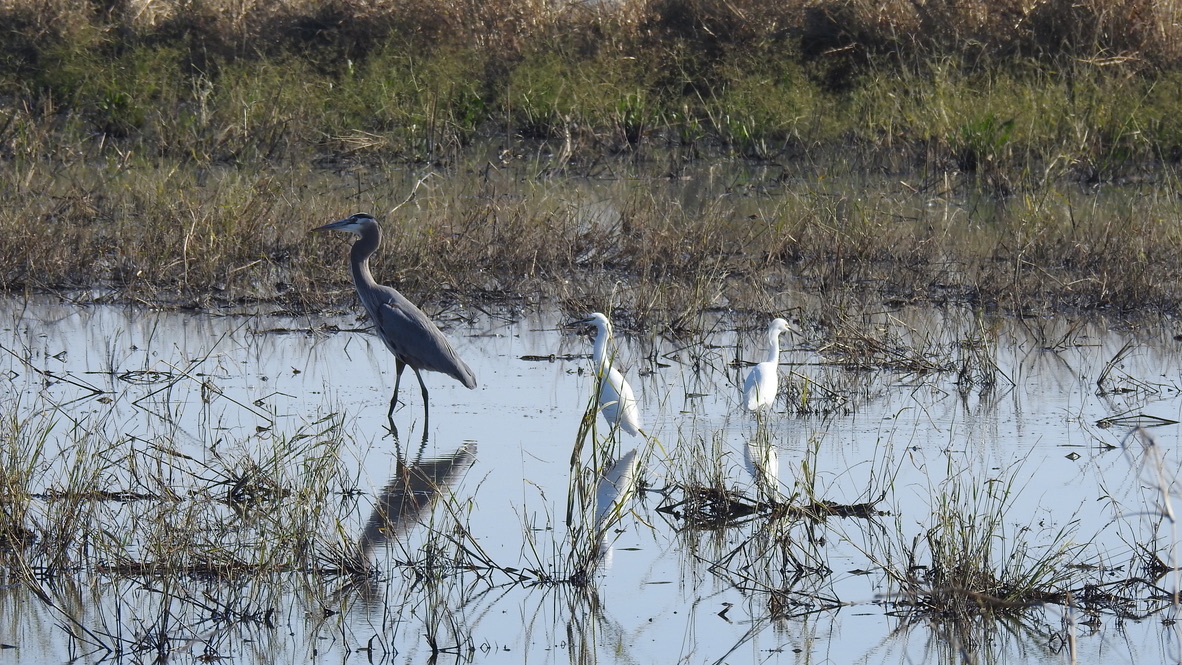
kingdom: Animalia
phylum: Chordata
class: Aves
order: Pelecaniformes
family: Ardeidae
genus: Egretta
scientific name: Egretta thula
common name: Snowy egret
